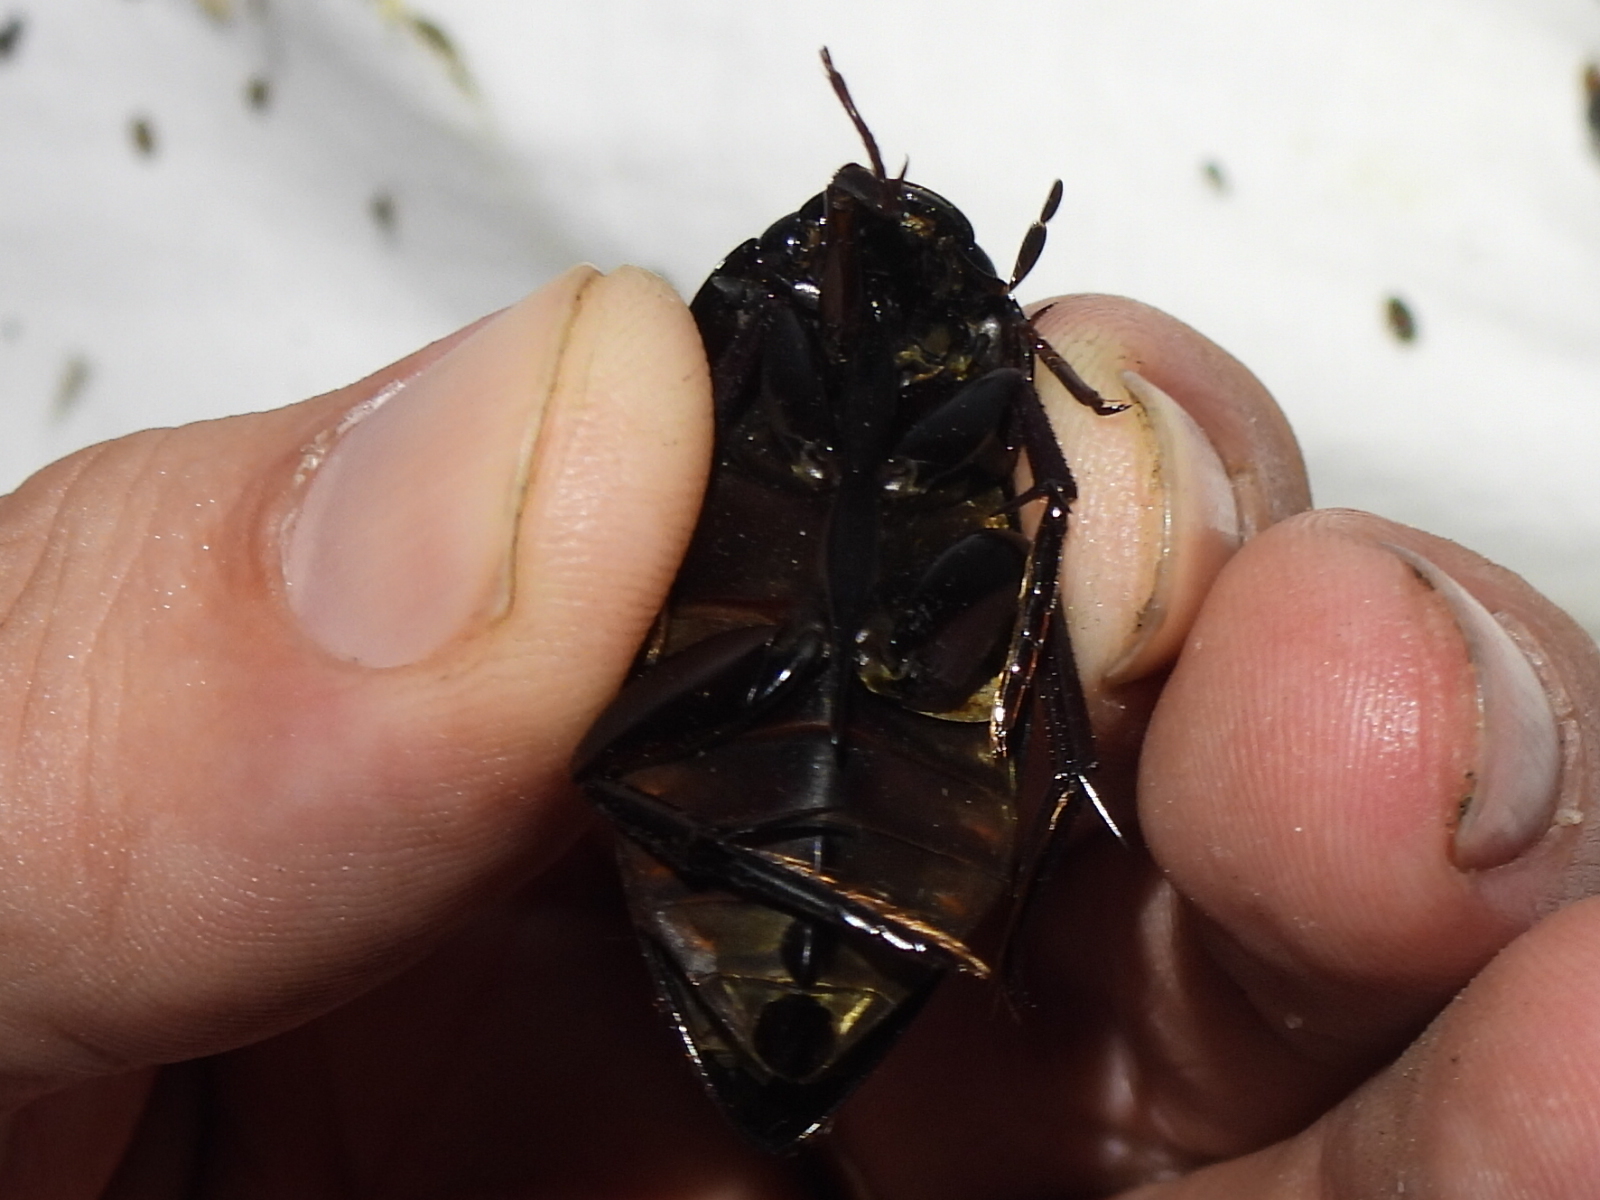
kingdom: Animalia
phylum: Arthropoda
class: Insecta
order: Coleoptera
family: Hydrophilidae
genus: Hydrophilus
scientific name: Hydrophilus ovatus
